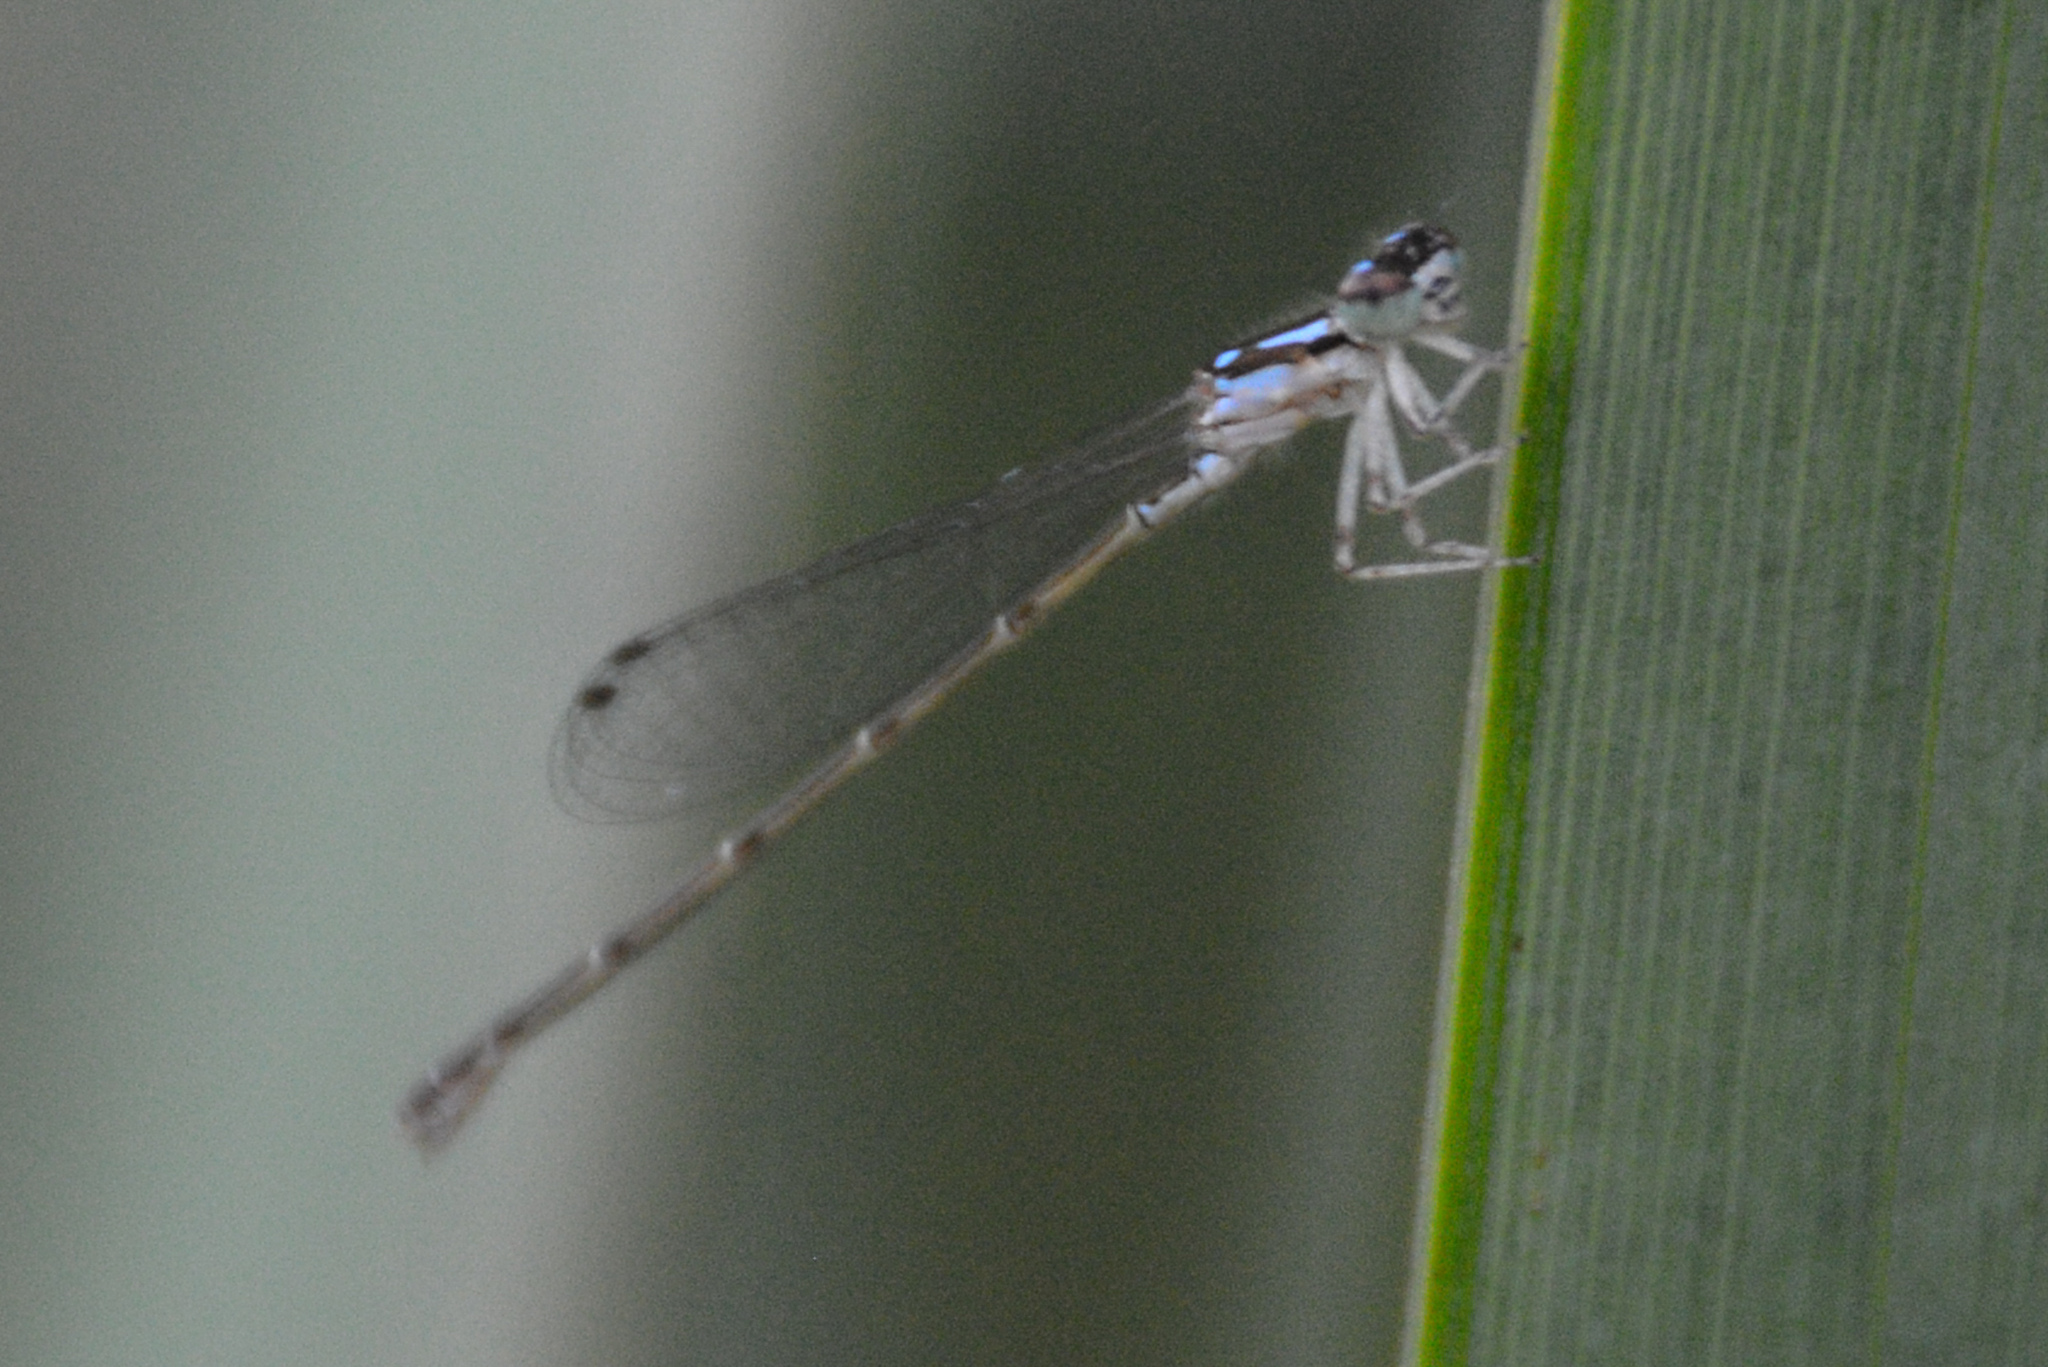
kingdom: Animalia
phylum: Arthropoda
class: Insecta
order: Odonata
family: Coenagrionidae
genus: Ischnura
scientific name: Ischnura posita
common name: Fragile forktail
